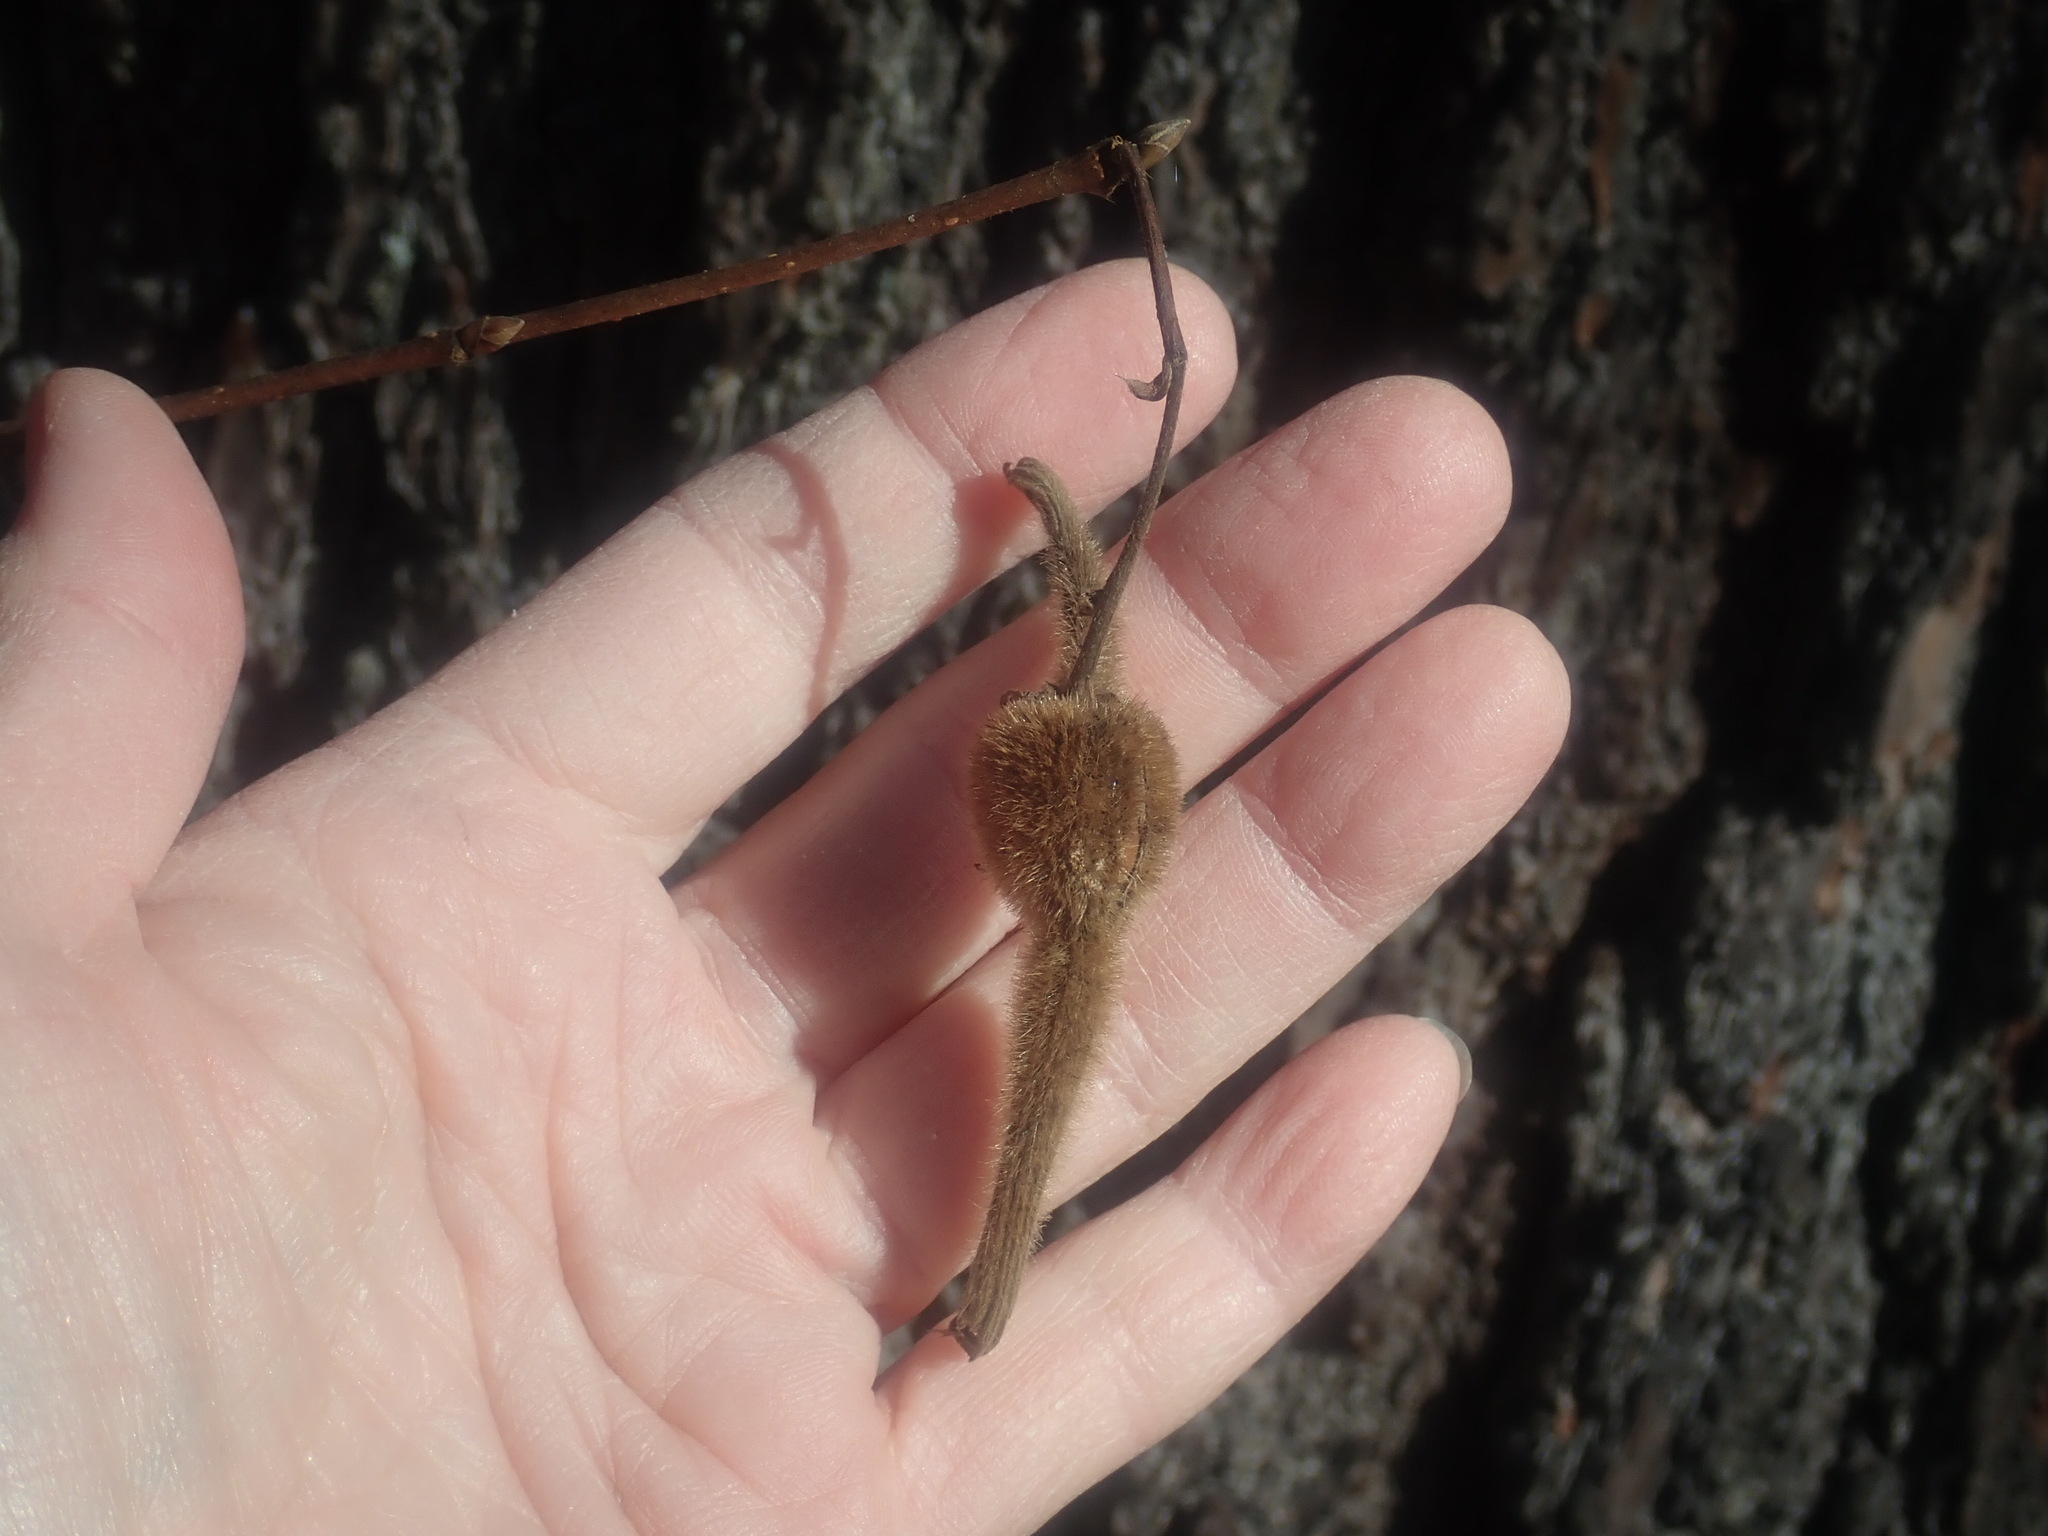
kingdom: Plantae
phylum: Tracheophyta
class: Magnoliopsida
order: Fagales
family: Betulaceae
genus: Corylus
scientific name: Corylus cornuta
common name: Beaked hazel
